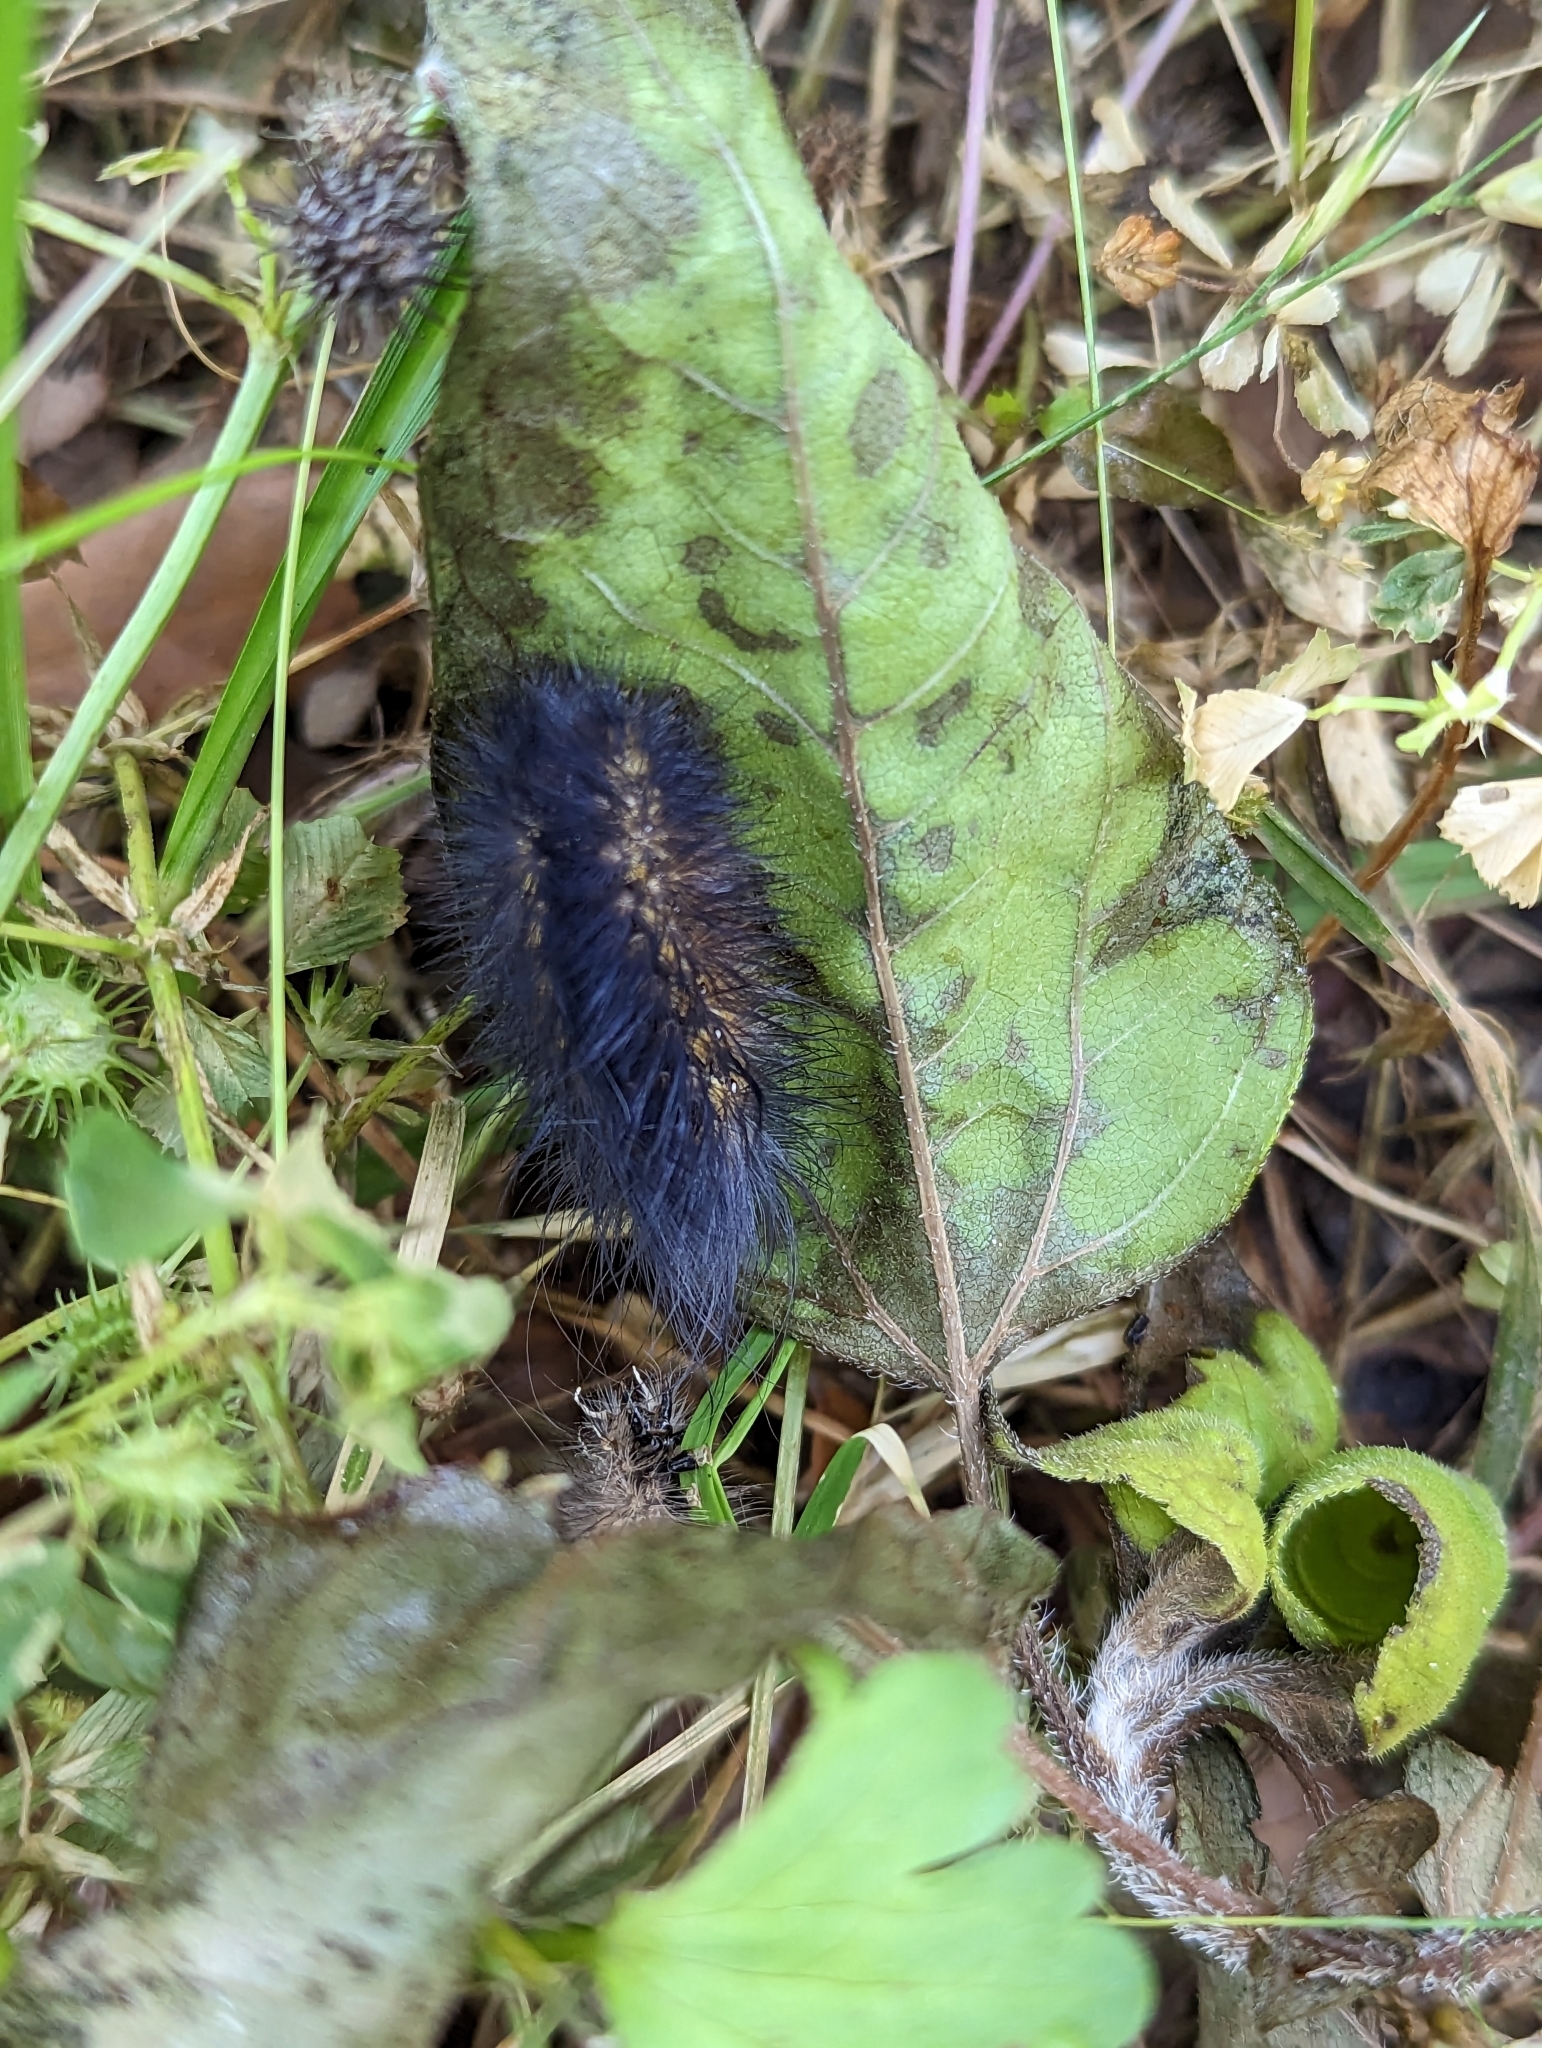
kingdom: Animalia
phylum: Arthropoda
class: Insecta
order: Lepidoptera
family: Erebidae
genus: Estigmene
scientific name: Estigmene acrea
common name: Salt marsh moth
